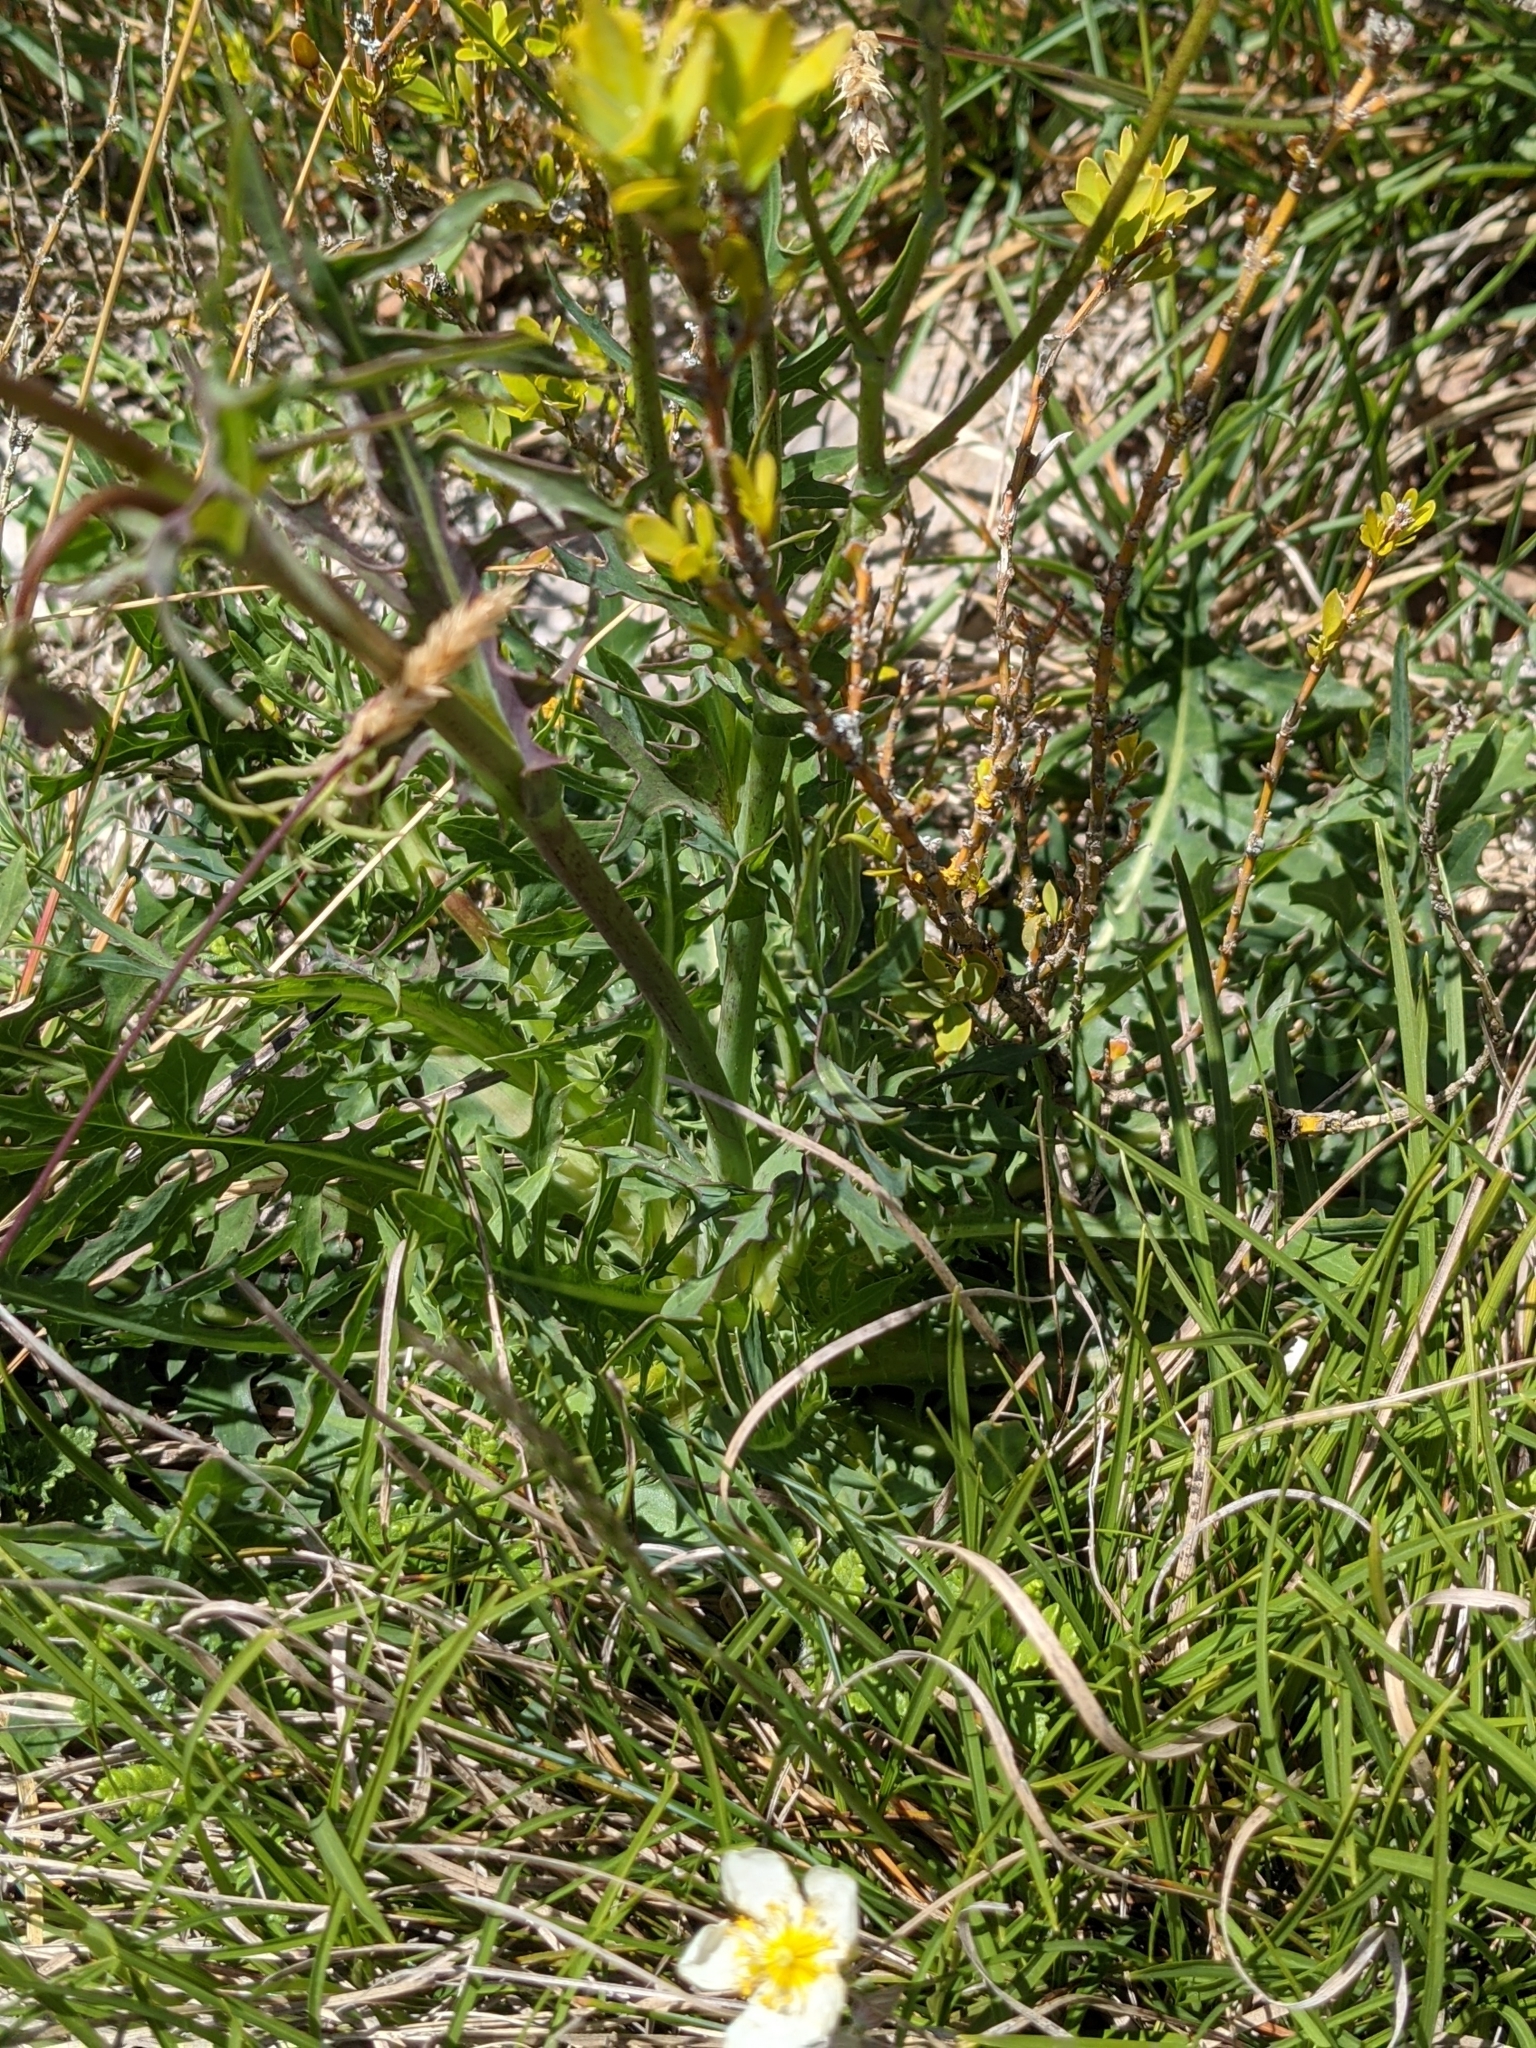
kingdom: Plantae
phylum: Tracheophyta
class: Magnoliopsida
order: Asterales
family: Asteraceae
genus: Lactuca
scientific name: Lactuca perennis
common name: Mountain lettuce
